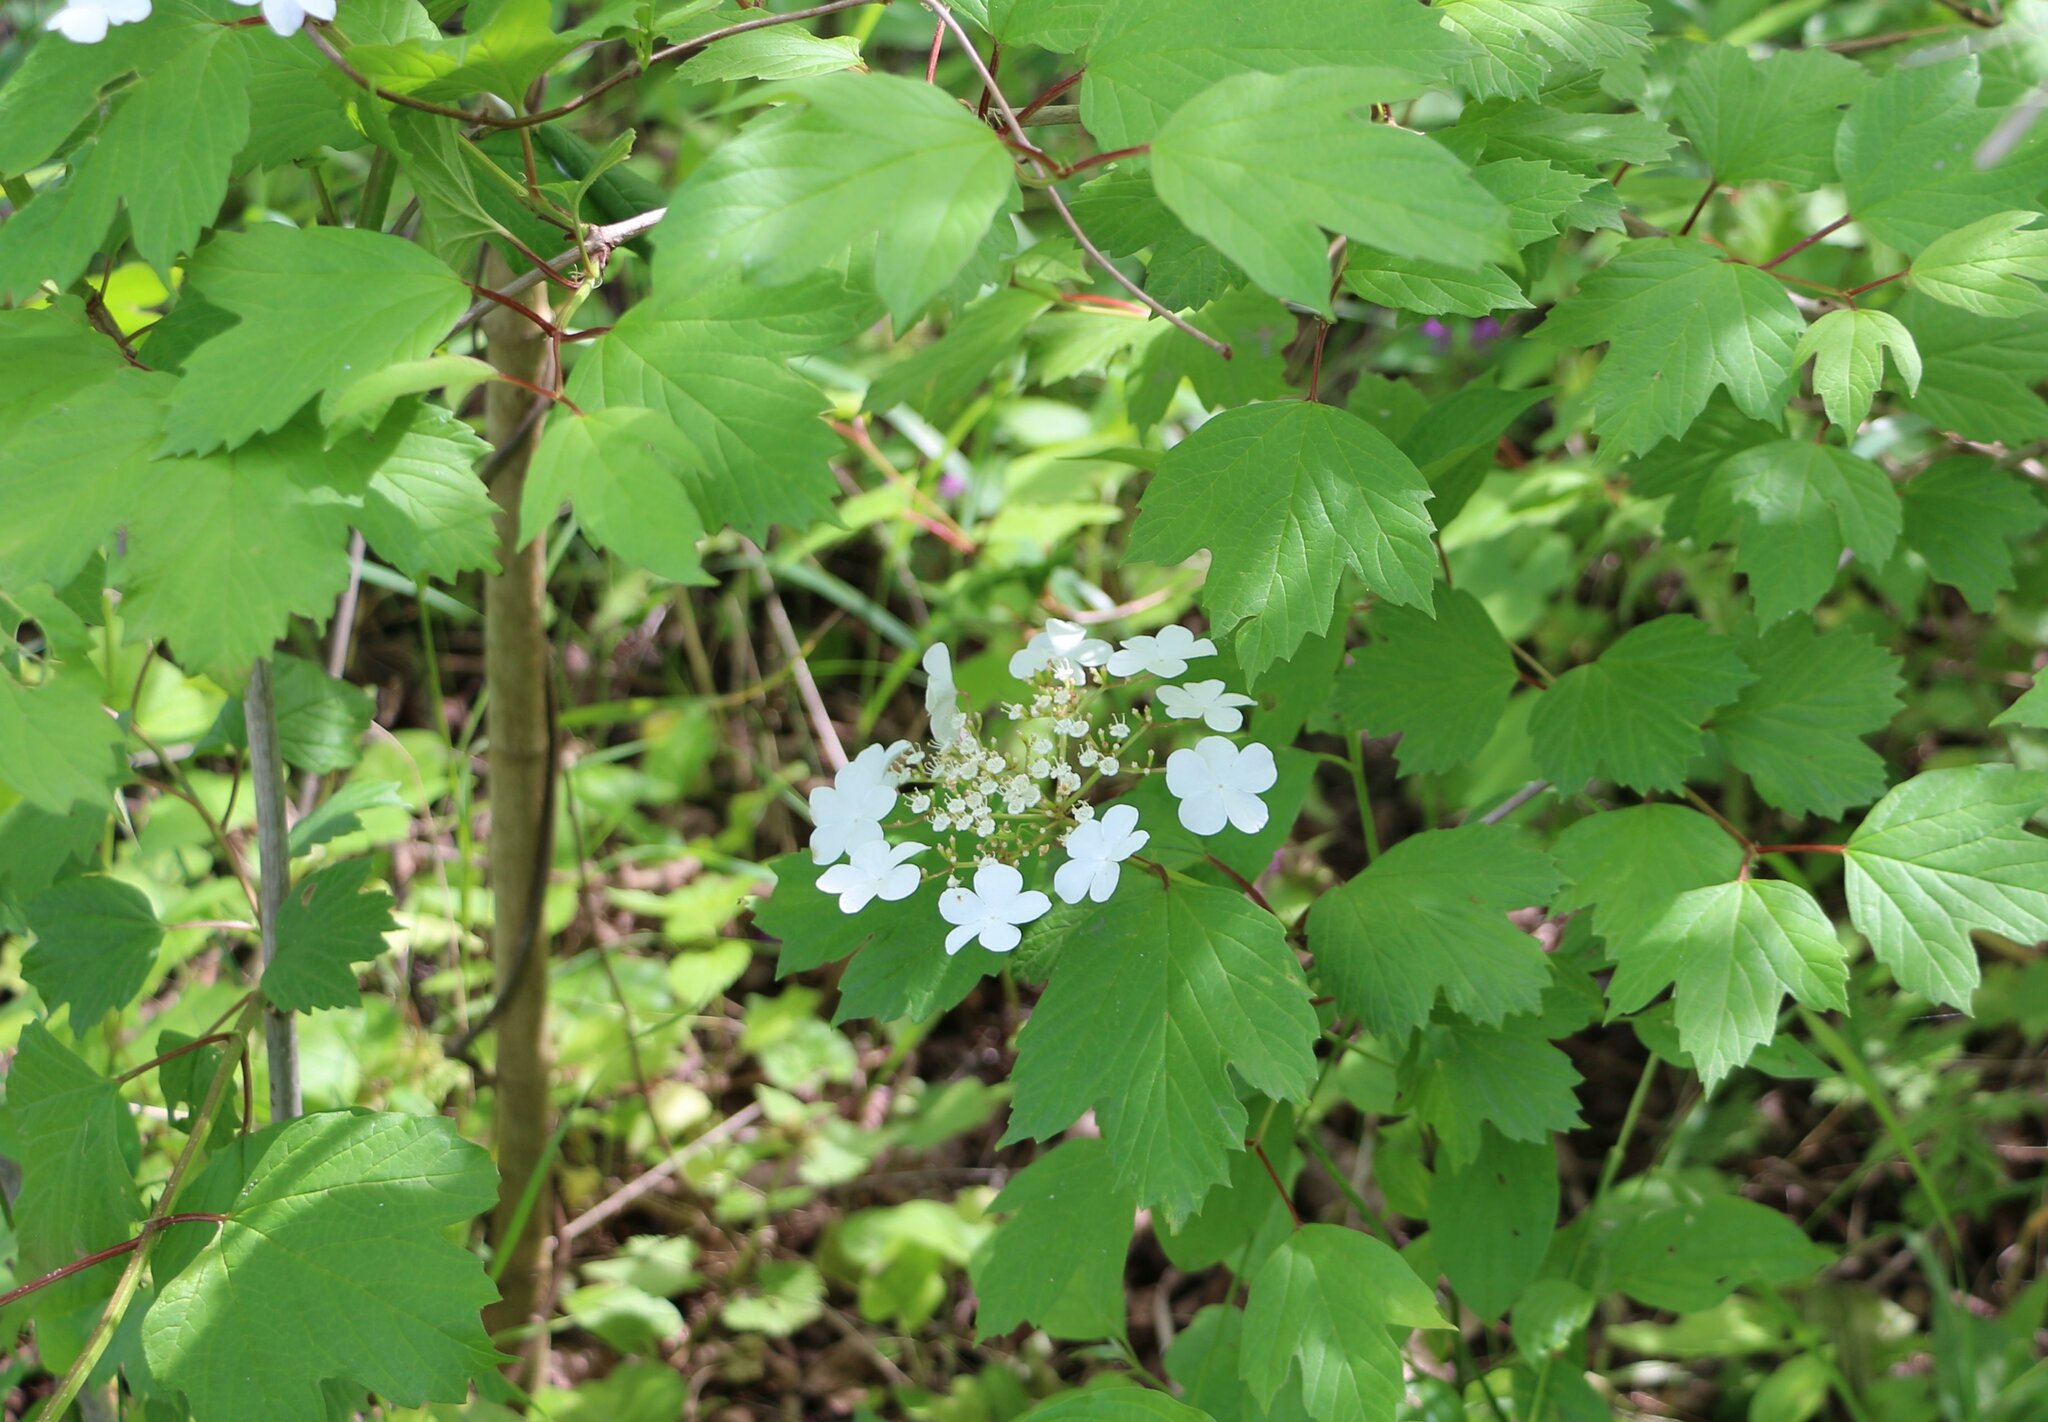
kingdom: Plantae
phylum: Tracheophyta
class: Magnoliopsida
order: Dipsacales
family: Viburnaceae
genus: Viburnum
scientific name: Viburnum opulus
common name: Guelder-rose
